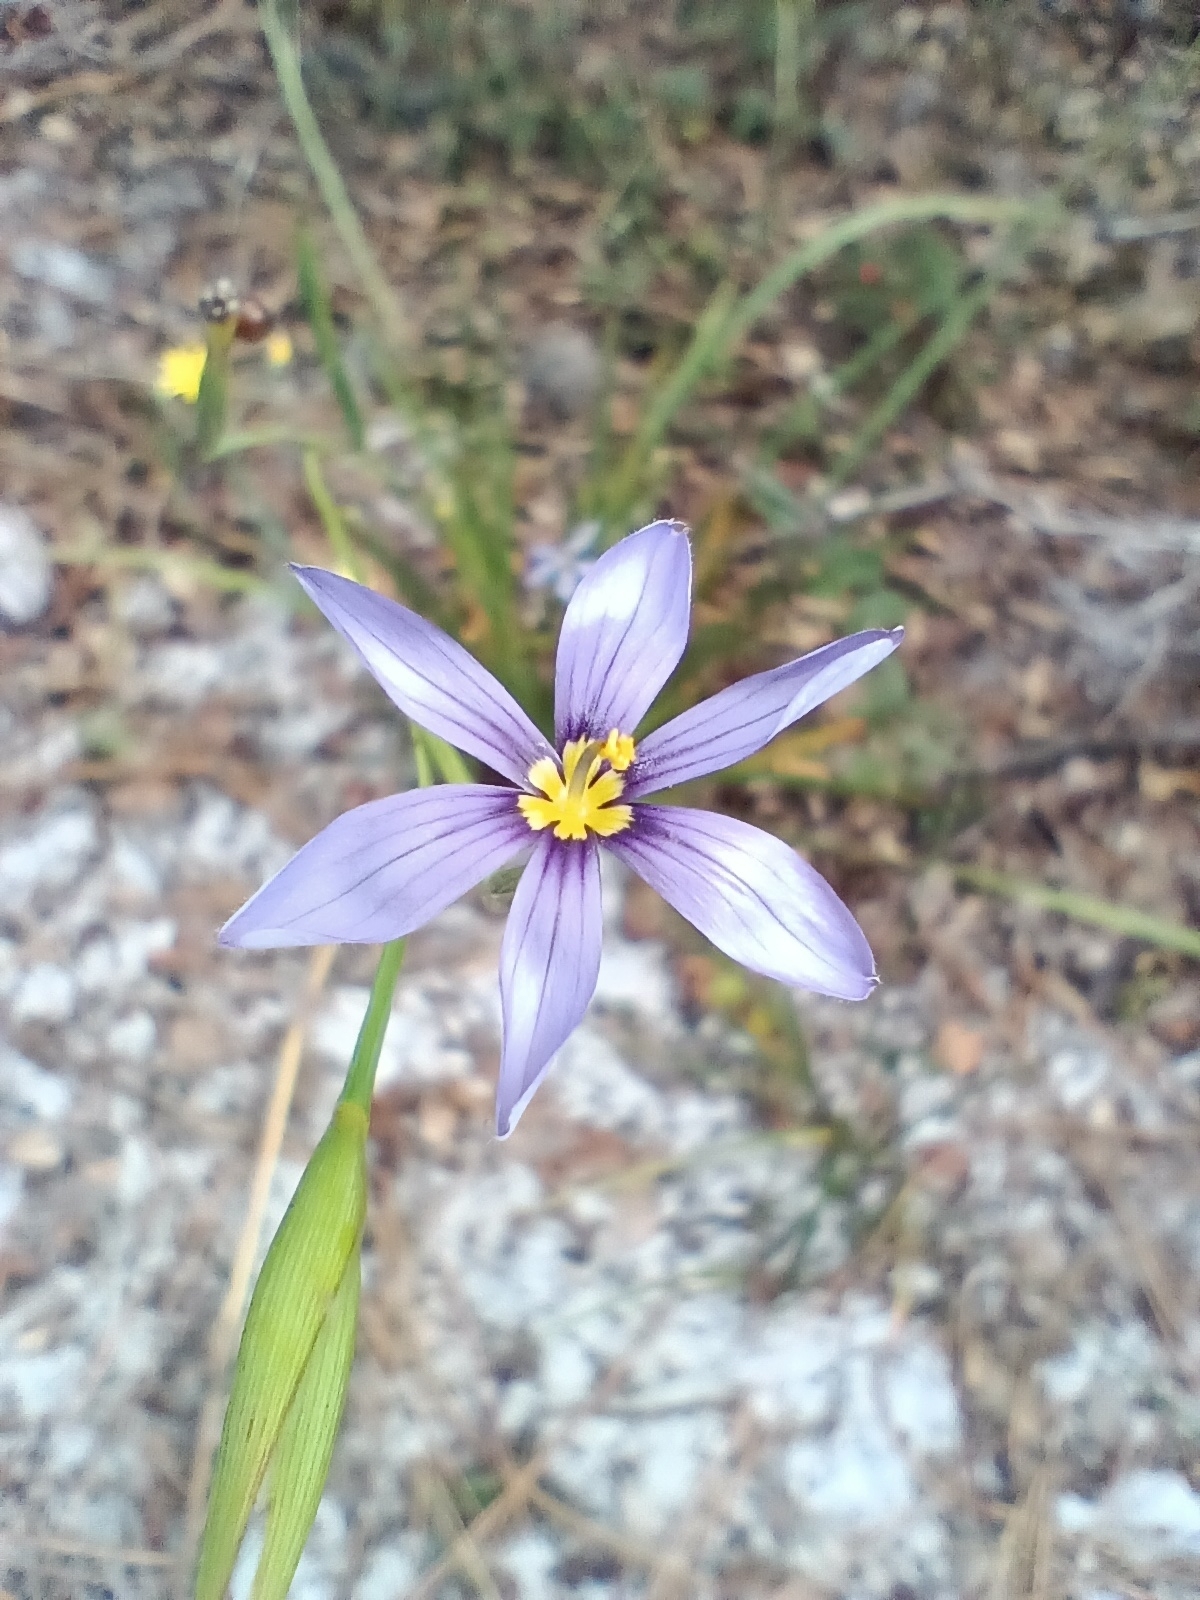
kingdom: Plantae
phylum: Tracheophyta
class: Liliopsida
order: Asparagales
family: Iridaceae
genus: Sisyrinchium
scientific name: Sisyrinchium xerophyllum
